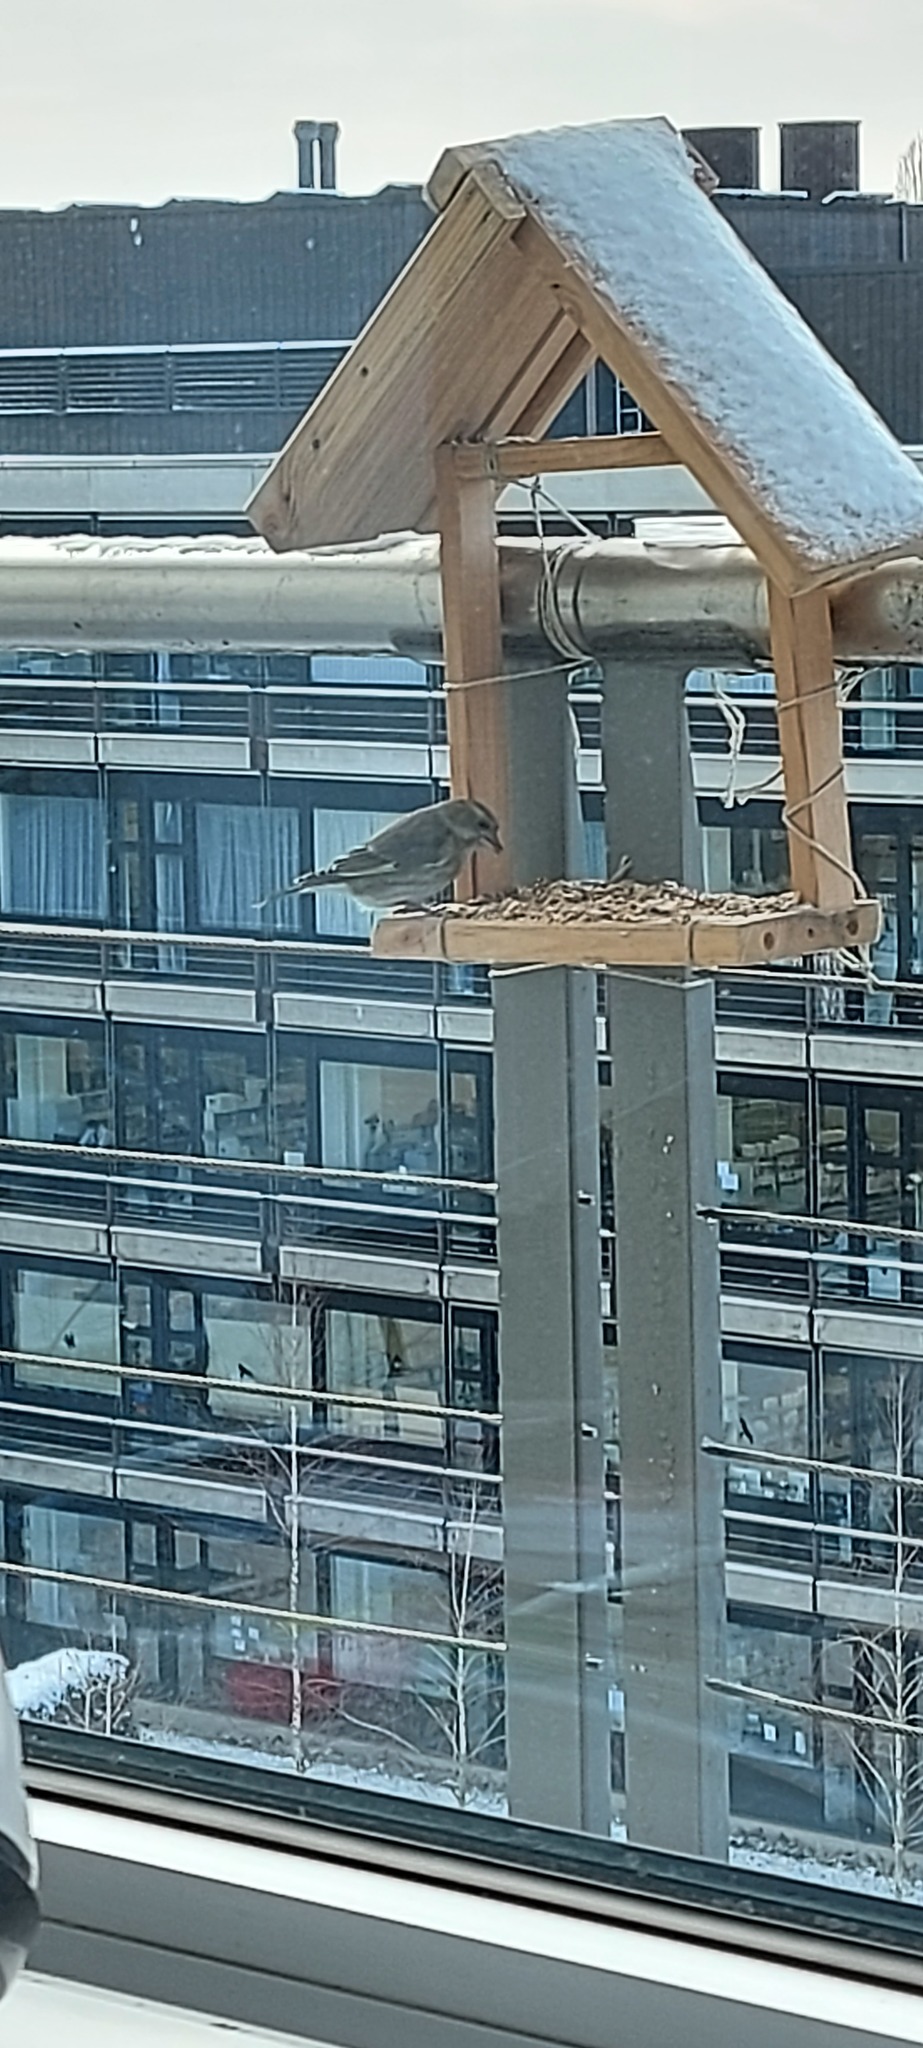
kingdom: Plantae
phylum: Tracheophyta
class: Liliopsida
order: Poales
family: Poaceae
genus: Chloris
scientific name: Chloris chloris
